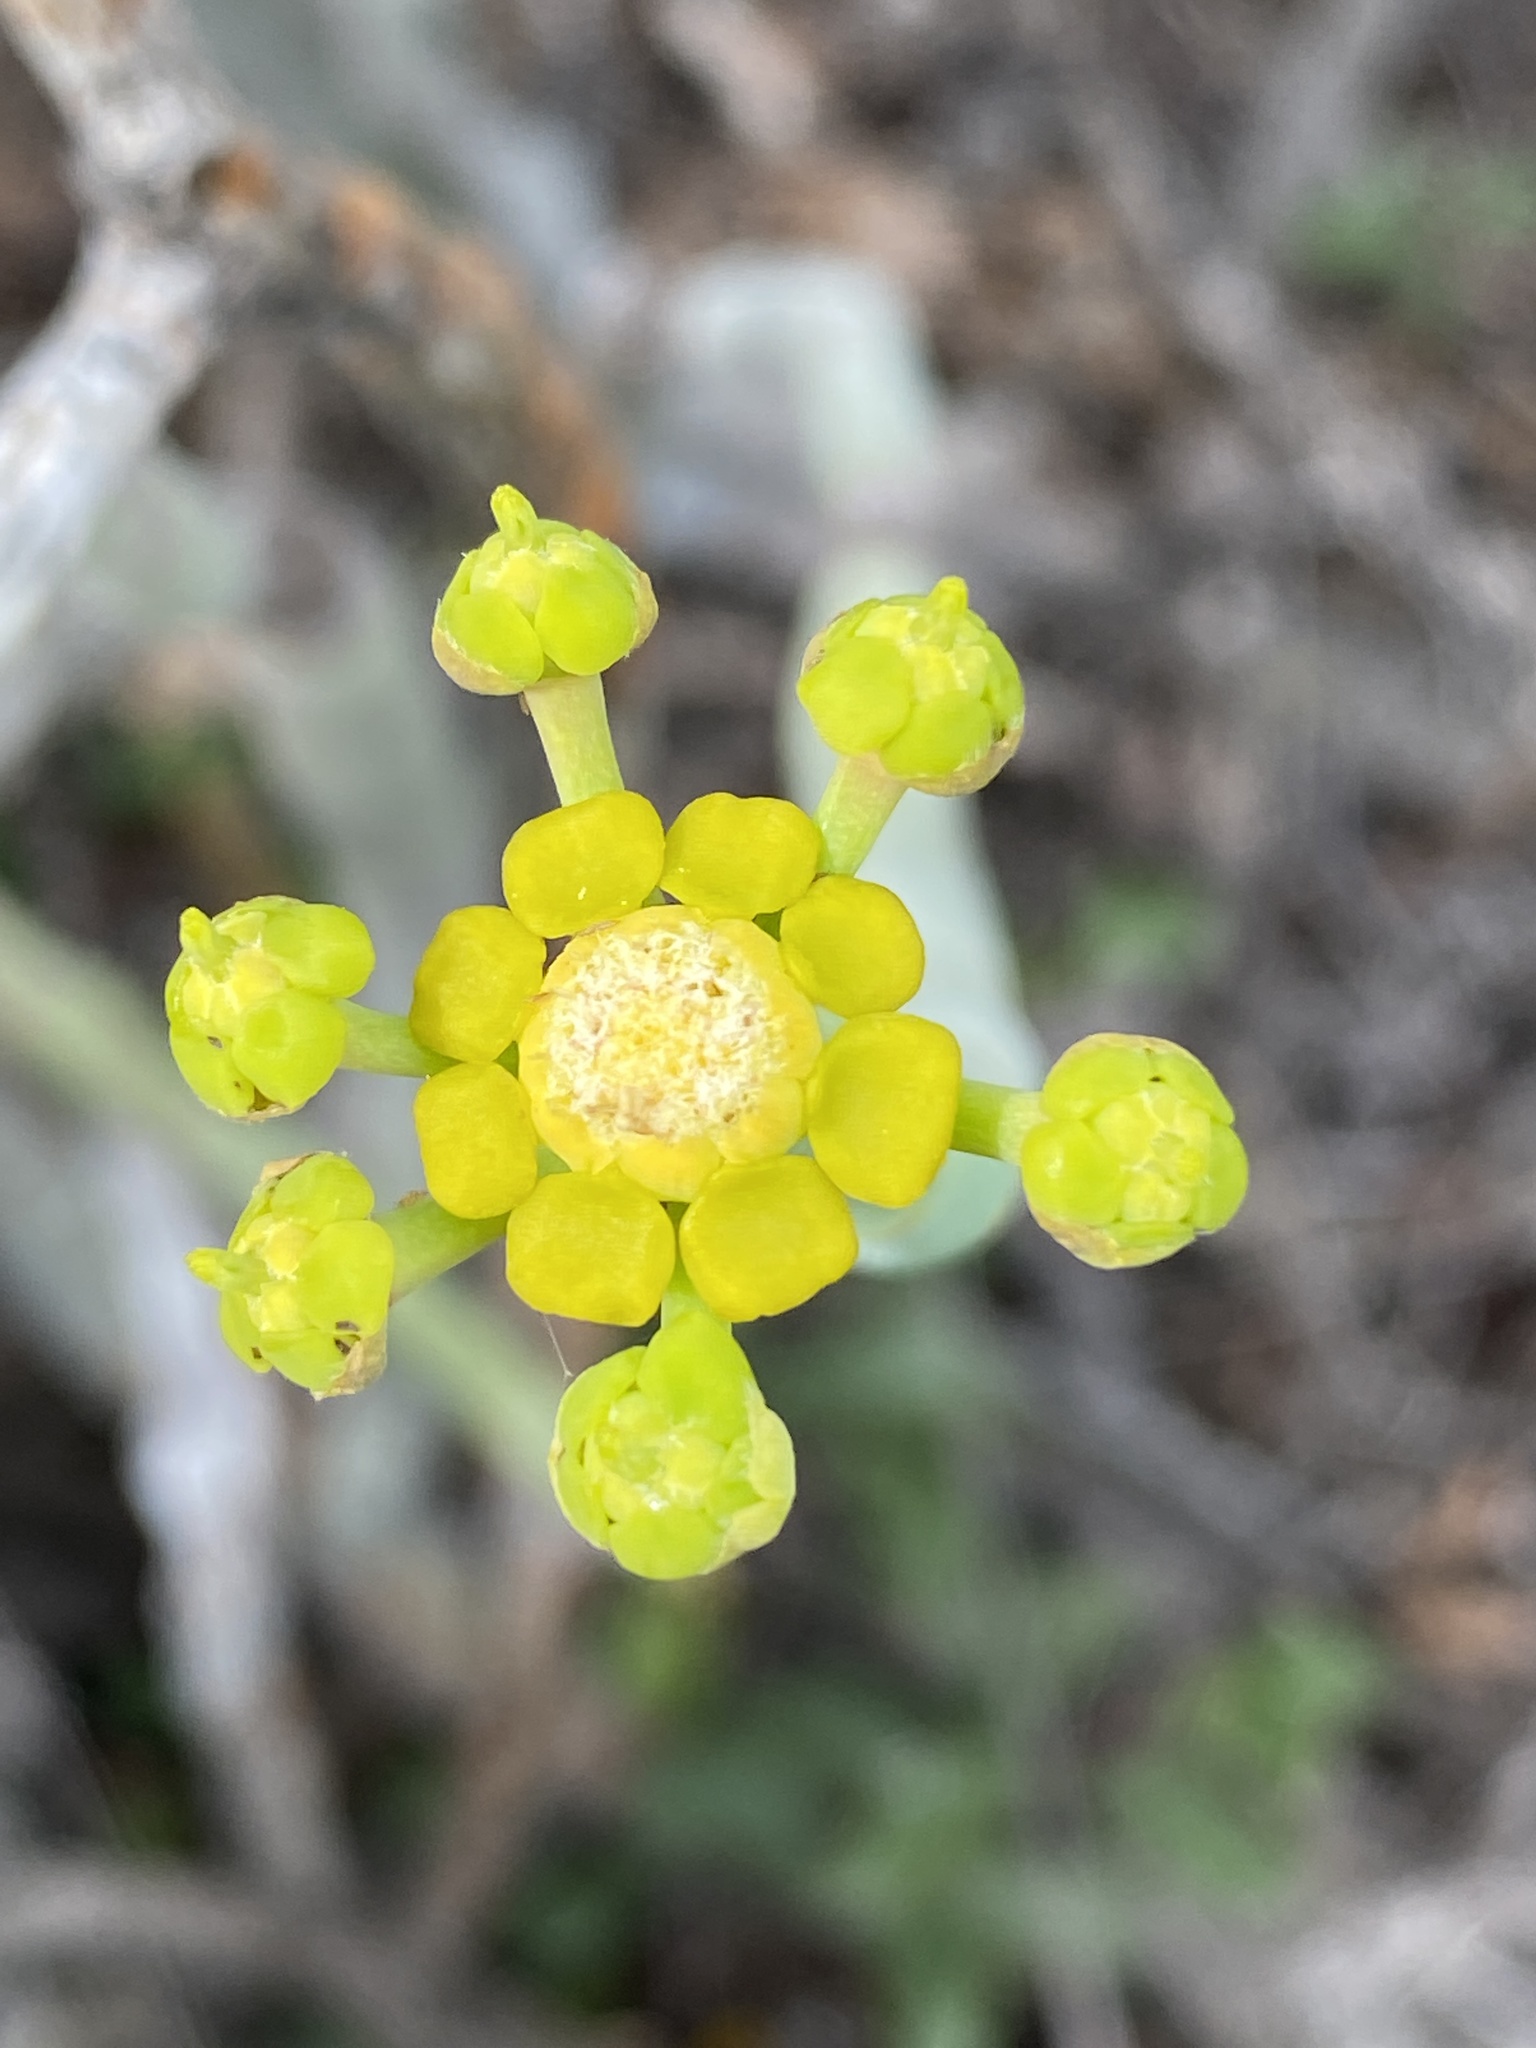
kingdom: Plantae
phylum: Tracheophyta
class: Magnoliopsida
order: Malpighiales
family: Euphorbiaceae
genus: Euphorbia
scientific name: Euphorbia mauritanica
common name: Jackal's-food
